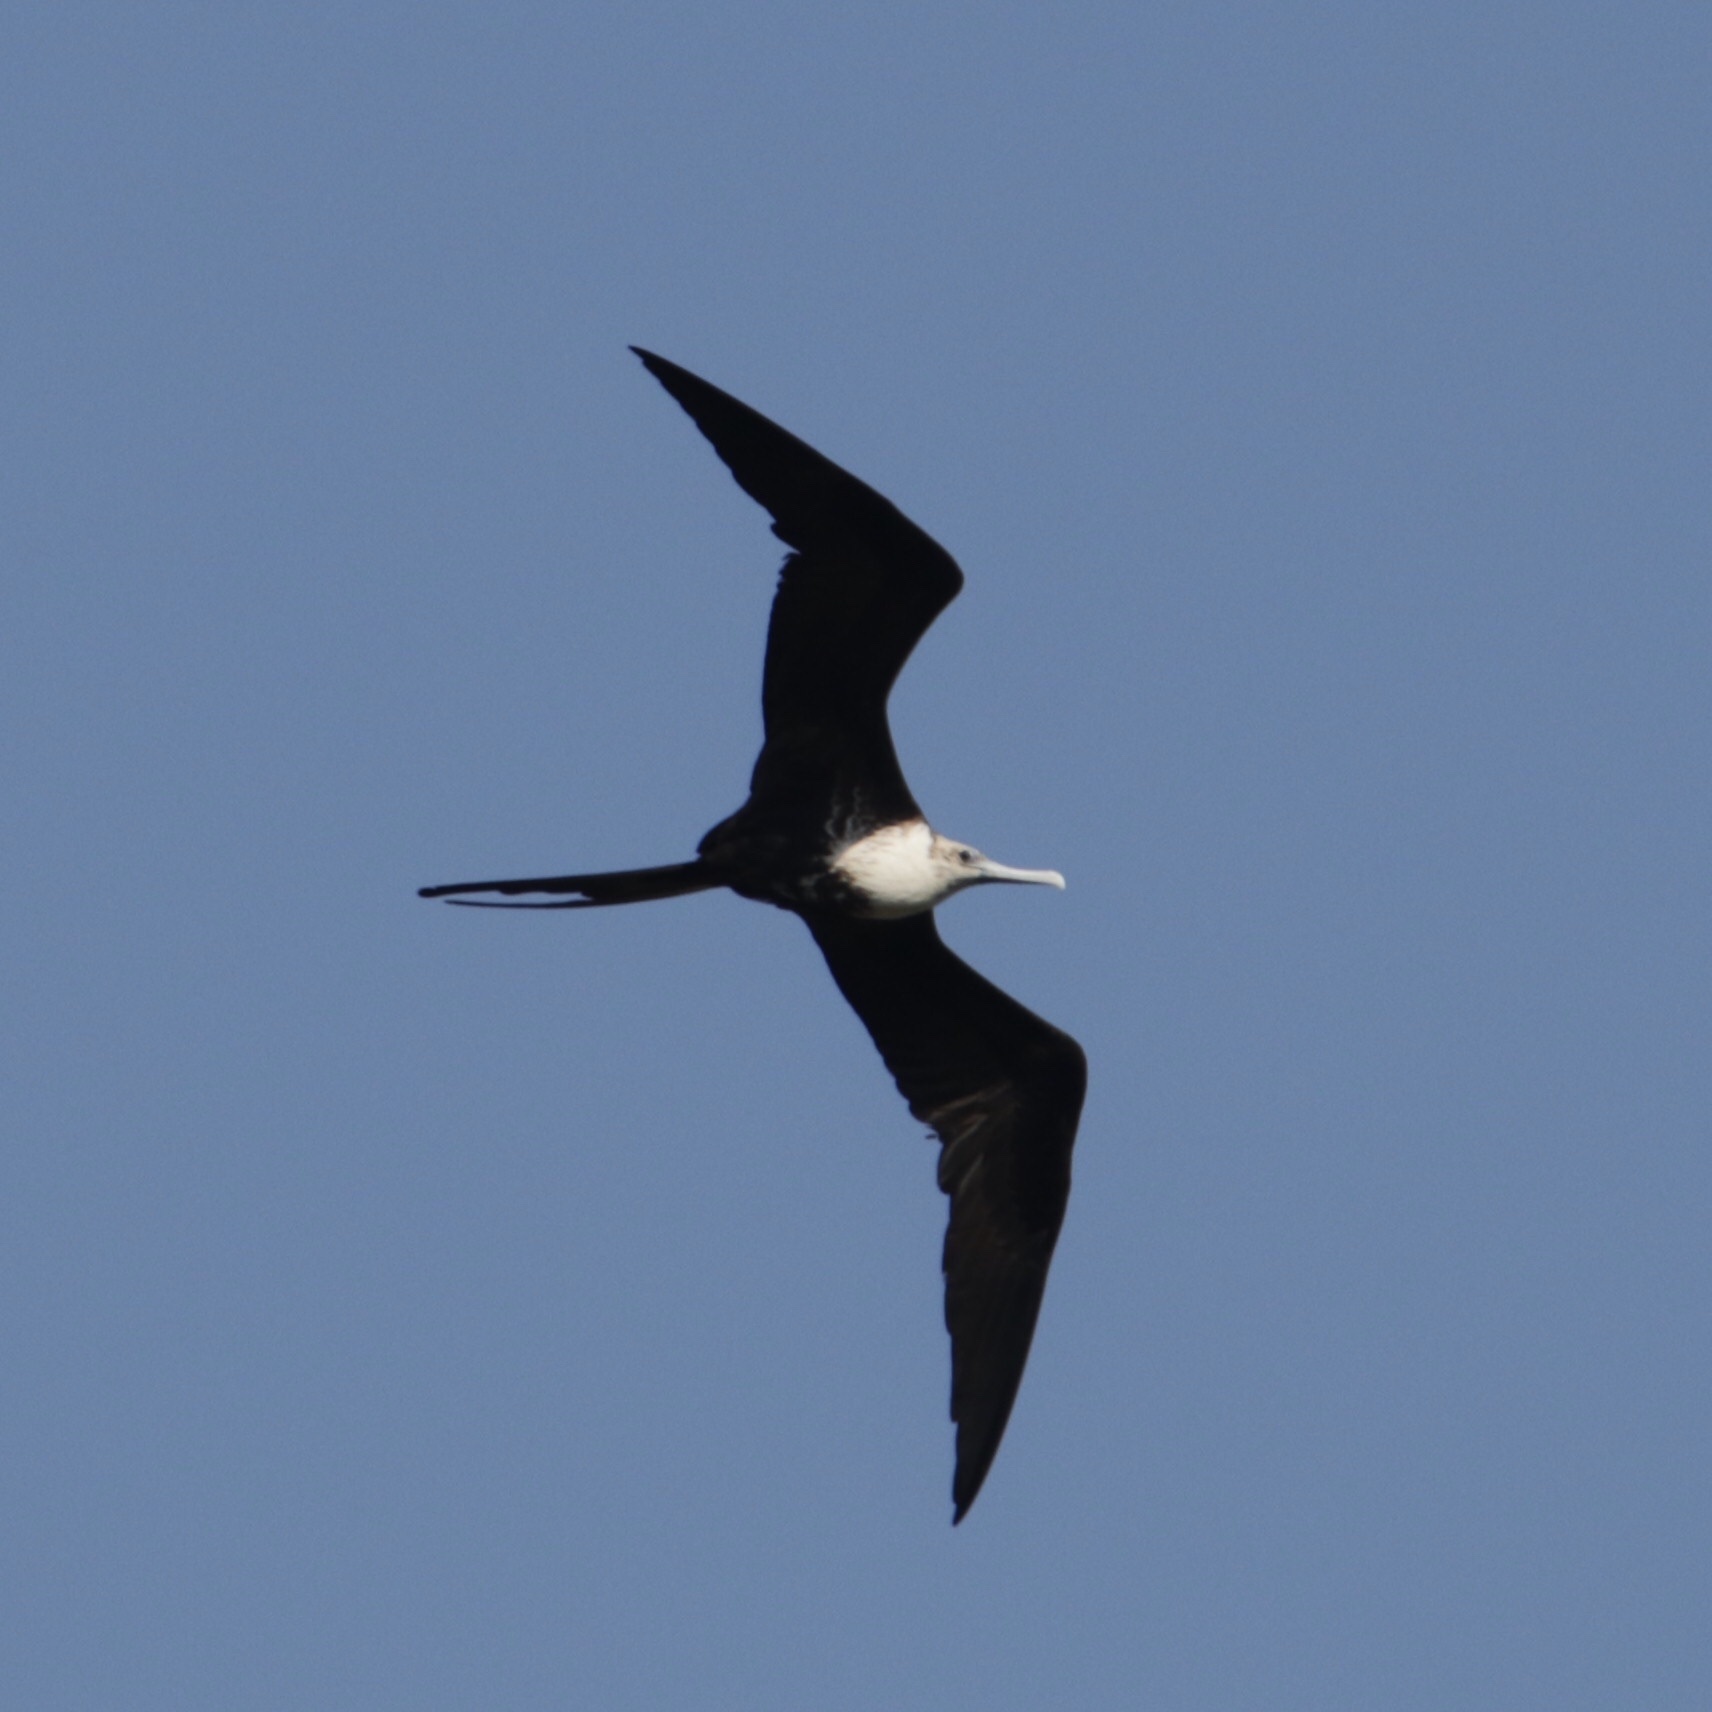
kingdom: Animalia
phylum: Chordata
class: Aves
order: Suliformes
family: Fregatidae
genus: Fregata
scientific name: Fregata magnificens
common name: Magnificent frigatebird
